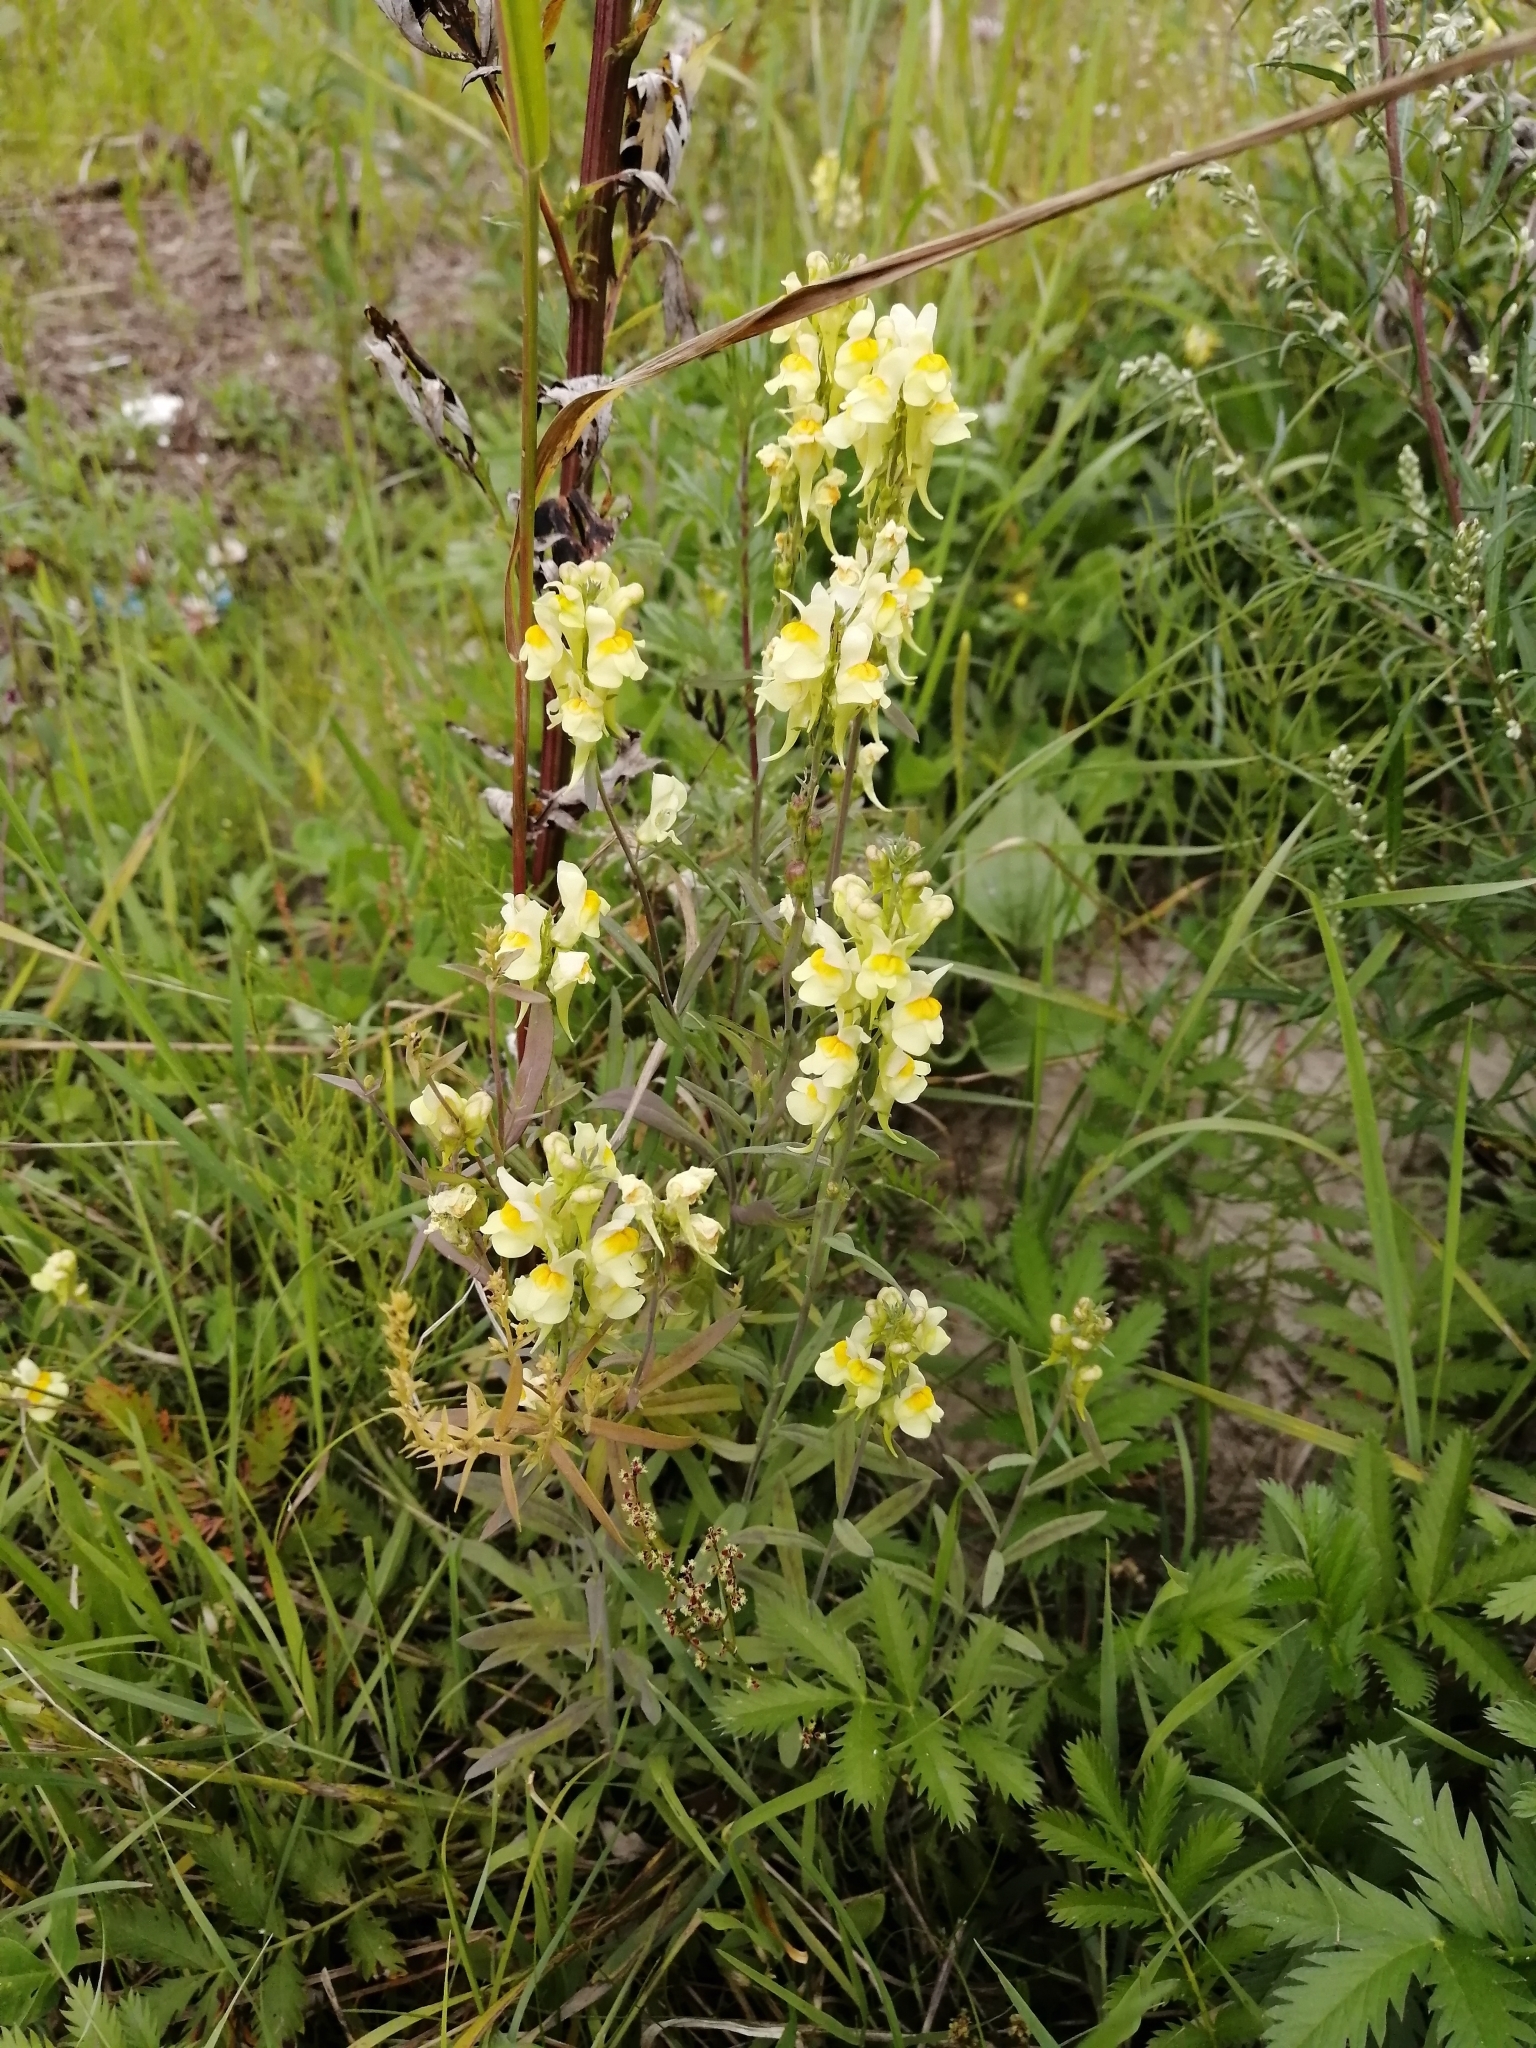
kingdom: Plantae
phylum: Tracheophyta
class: Magnoliopsida
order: Lamiales
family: Plantaginaceae
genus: Linaria
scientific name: Linaria vulgaris
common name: Butter and eggs
